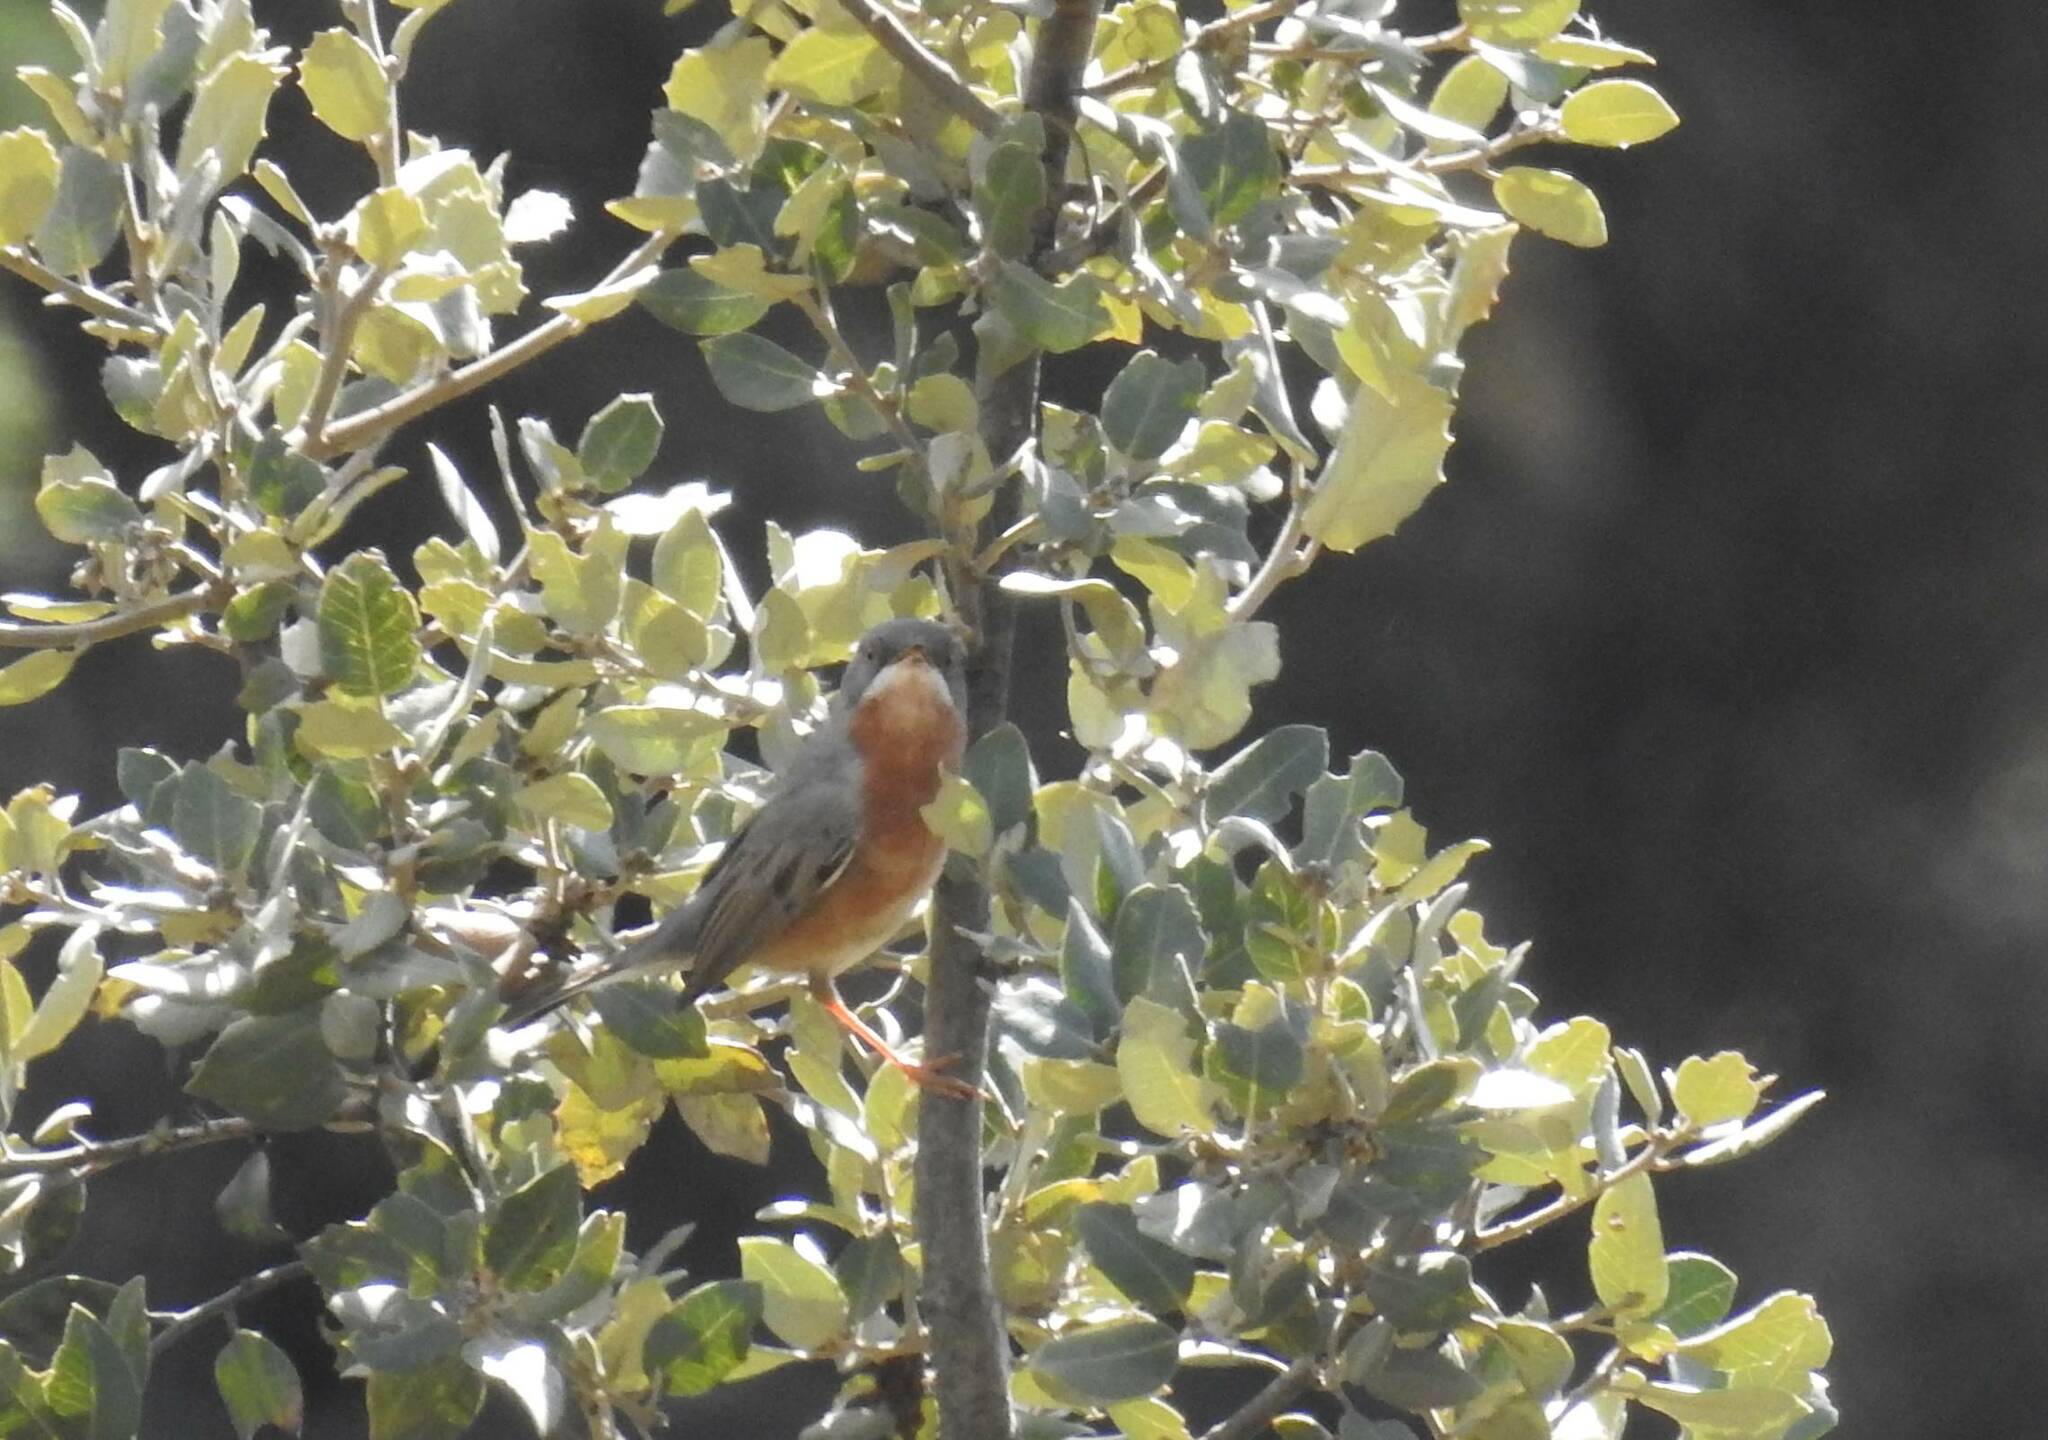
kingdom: Animalia
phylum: Chordata
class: Aves
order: Passeriformes
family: Sylviidae
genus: Curruca
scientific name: Curruca iberiae
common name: Western subalpine warbler
